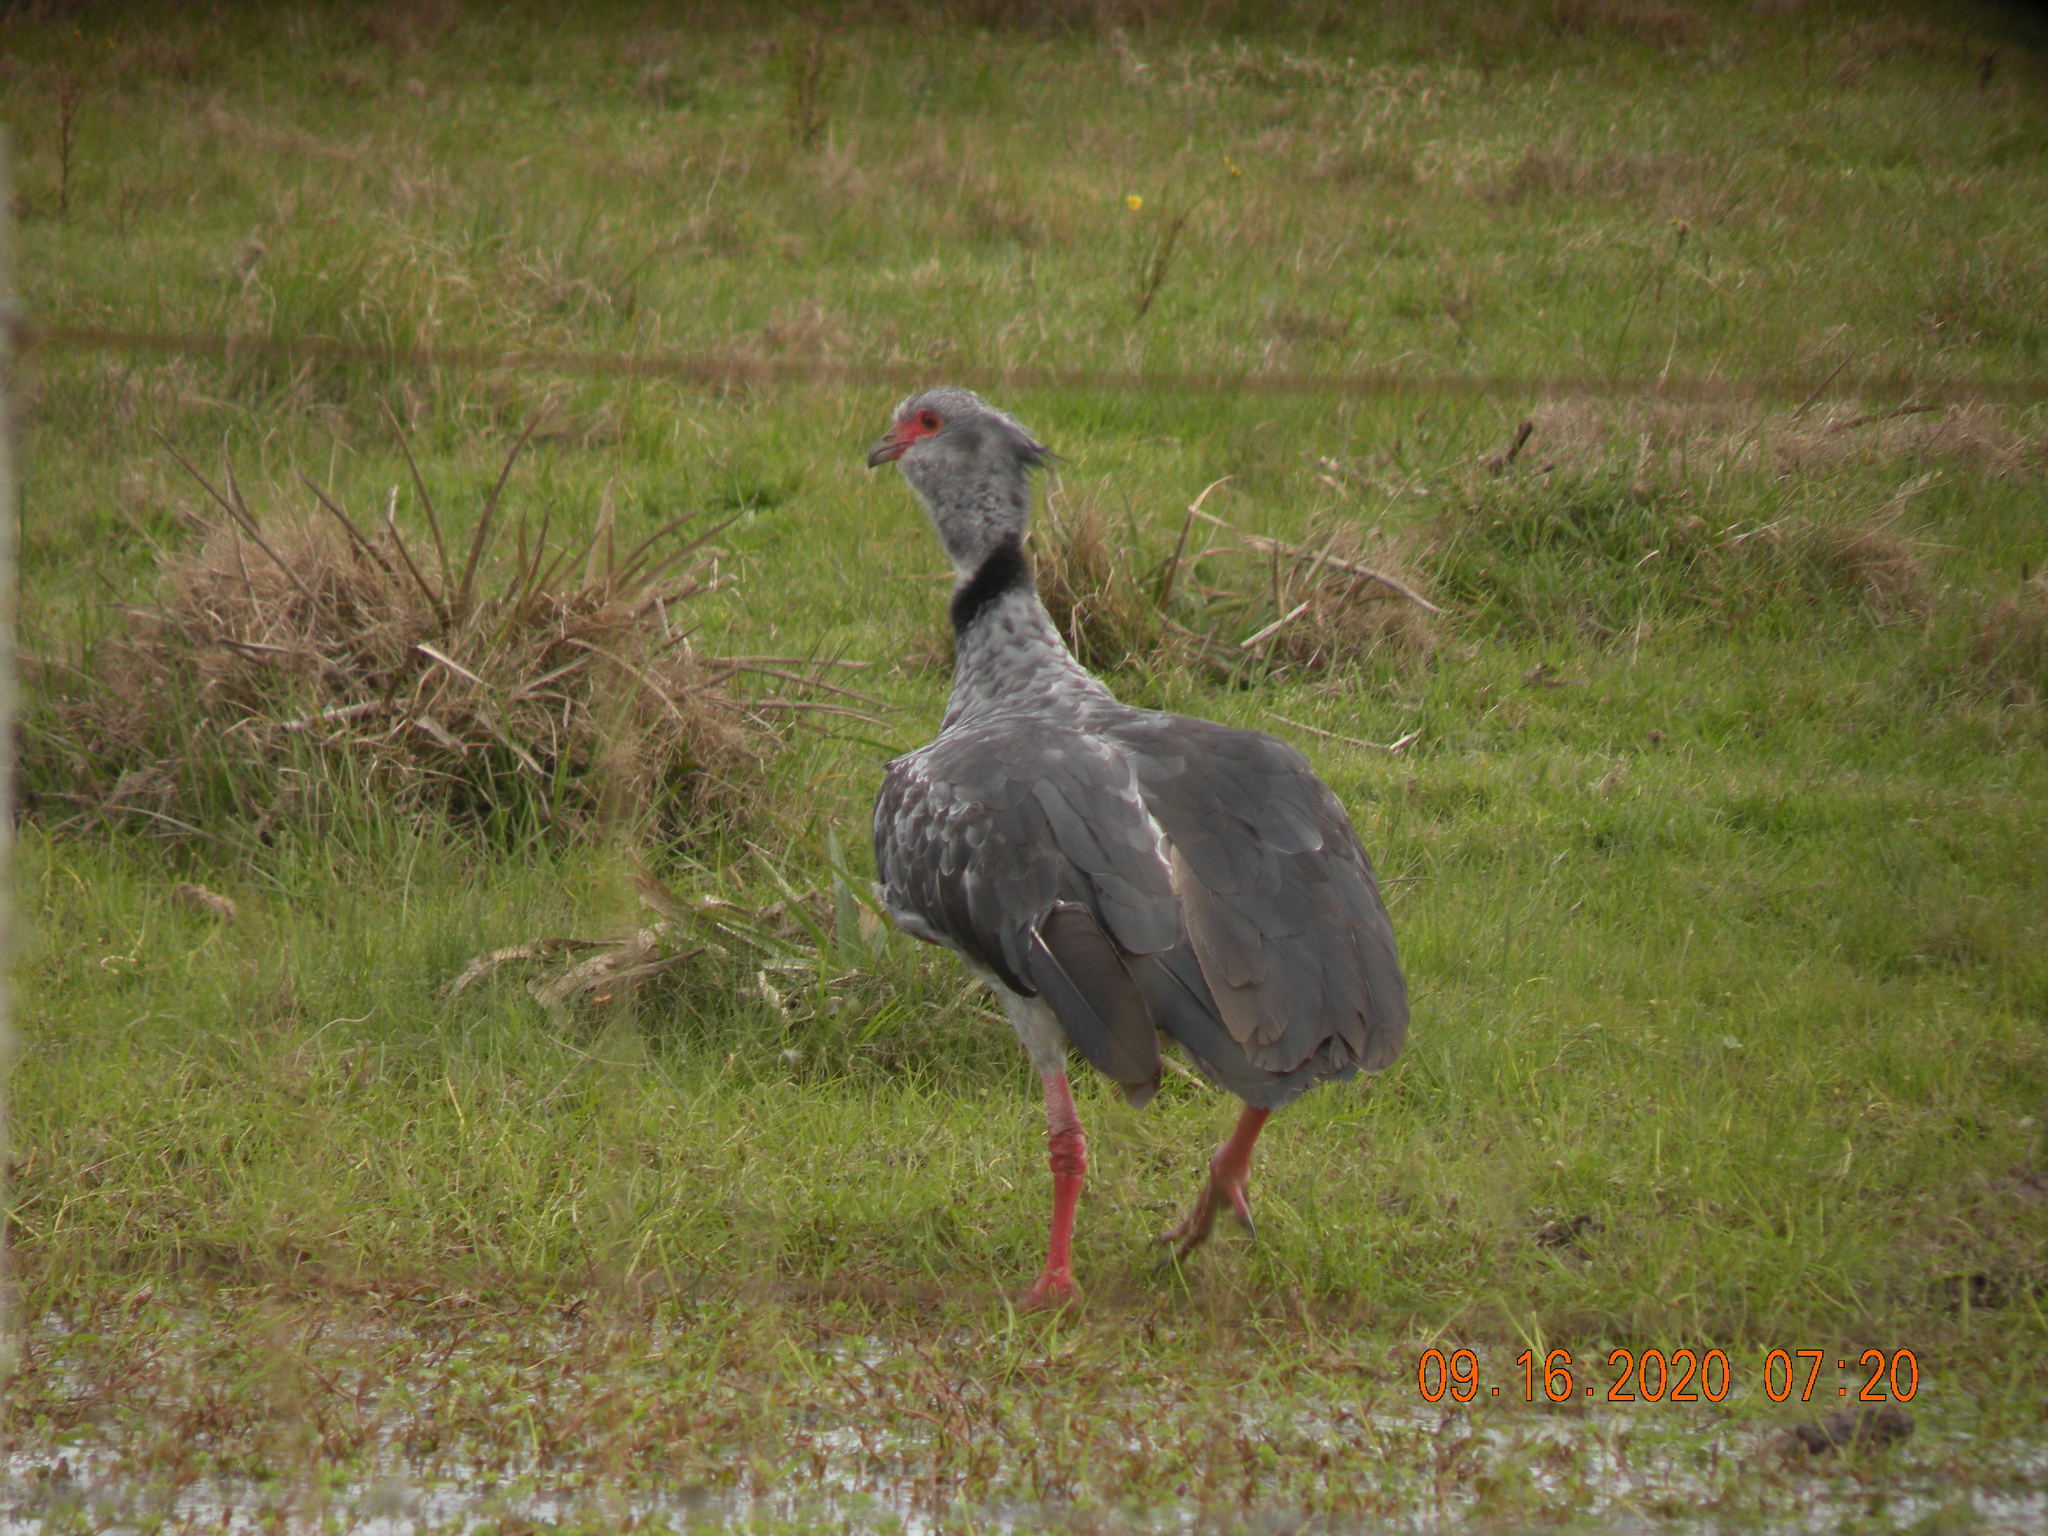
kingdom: Animalia
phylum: Chordata
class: Aves
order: Anseriformes
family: Anhimidae
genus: Chauna
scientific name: Chauna torquata
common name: Southern screamer
